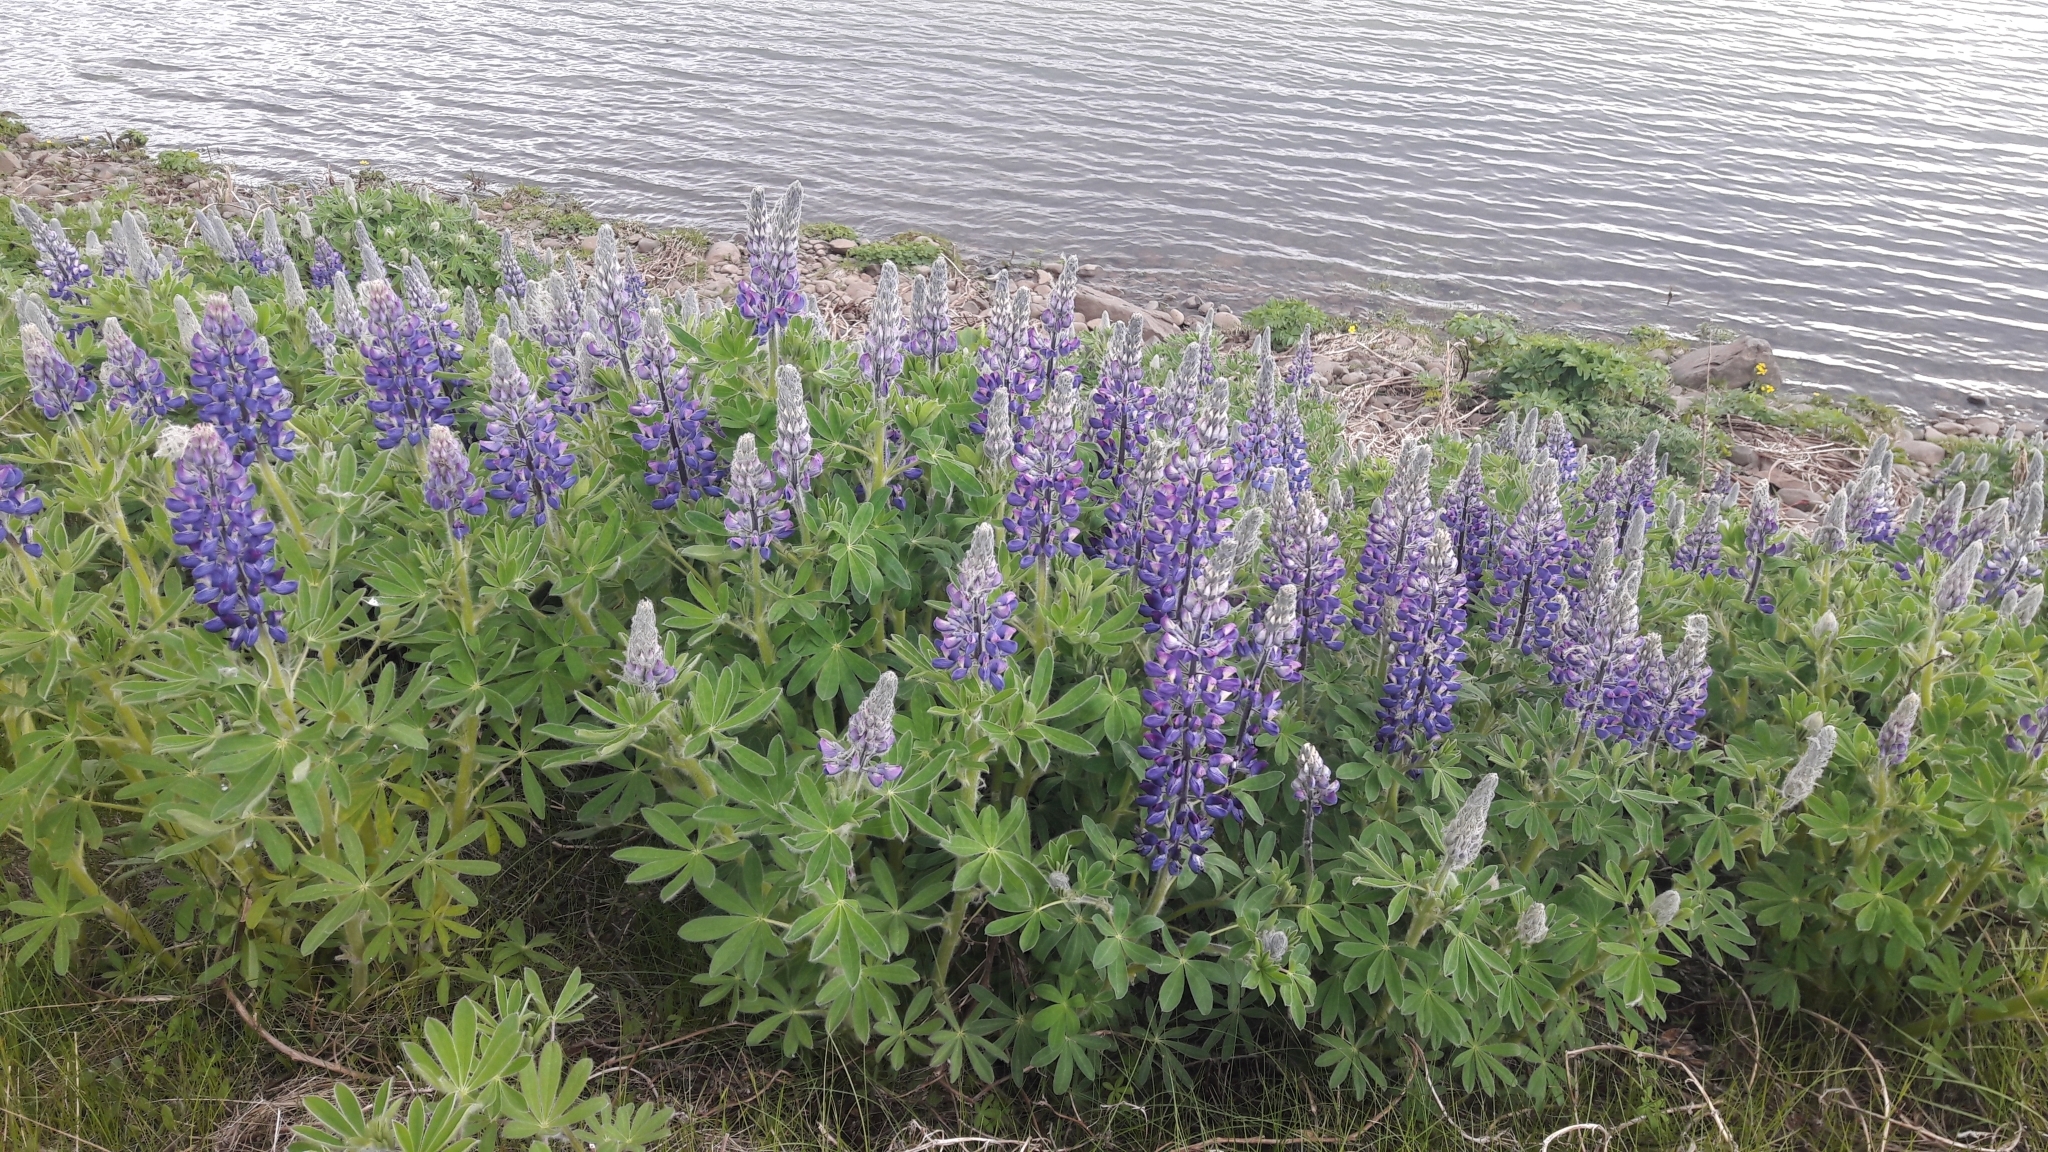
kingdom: Plantae
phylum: Tracheophyta
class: Magnoliopsida
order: Fabales
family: Fabaceae
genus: Lupinus
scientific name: Lupinus nootkatensis
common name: Nootka lupine
